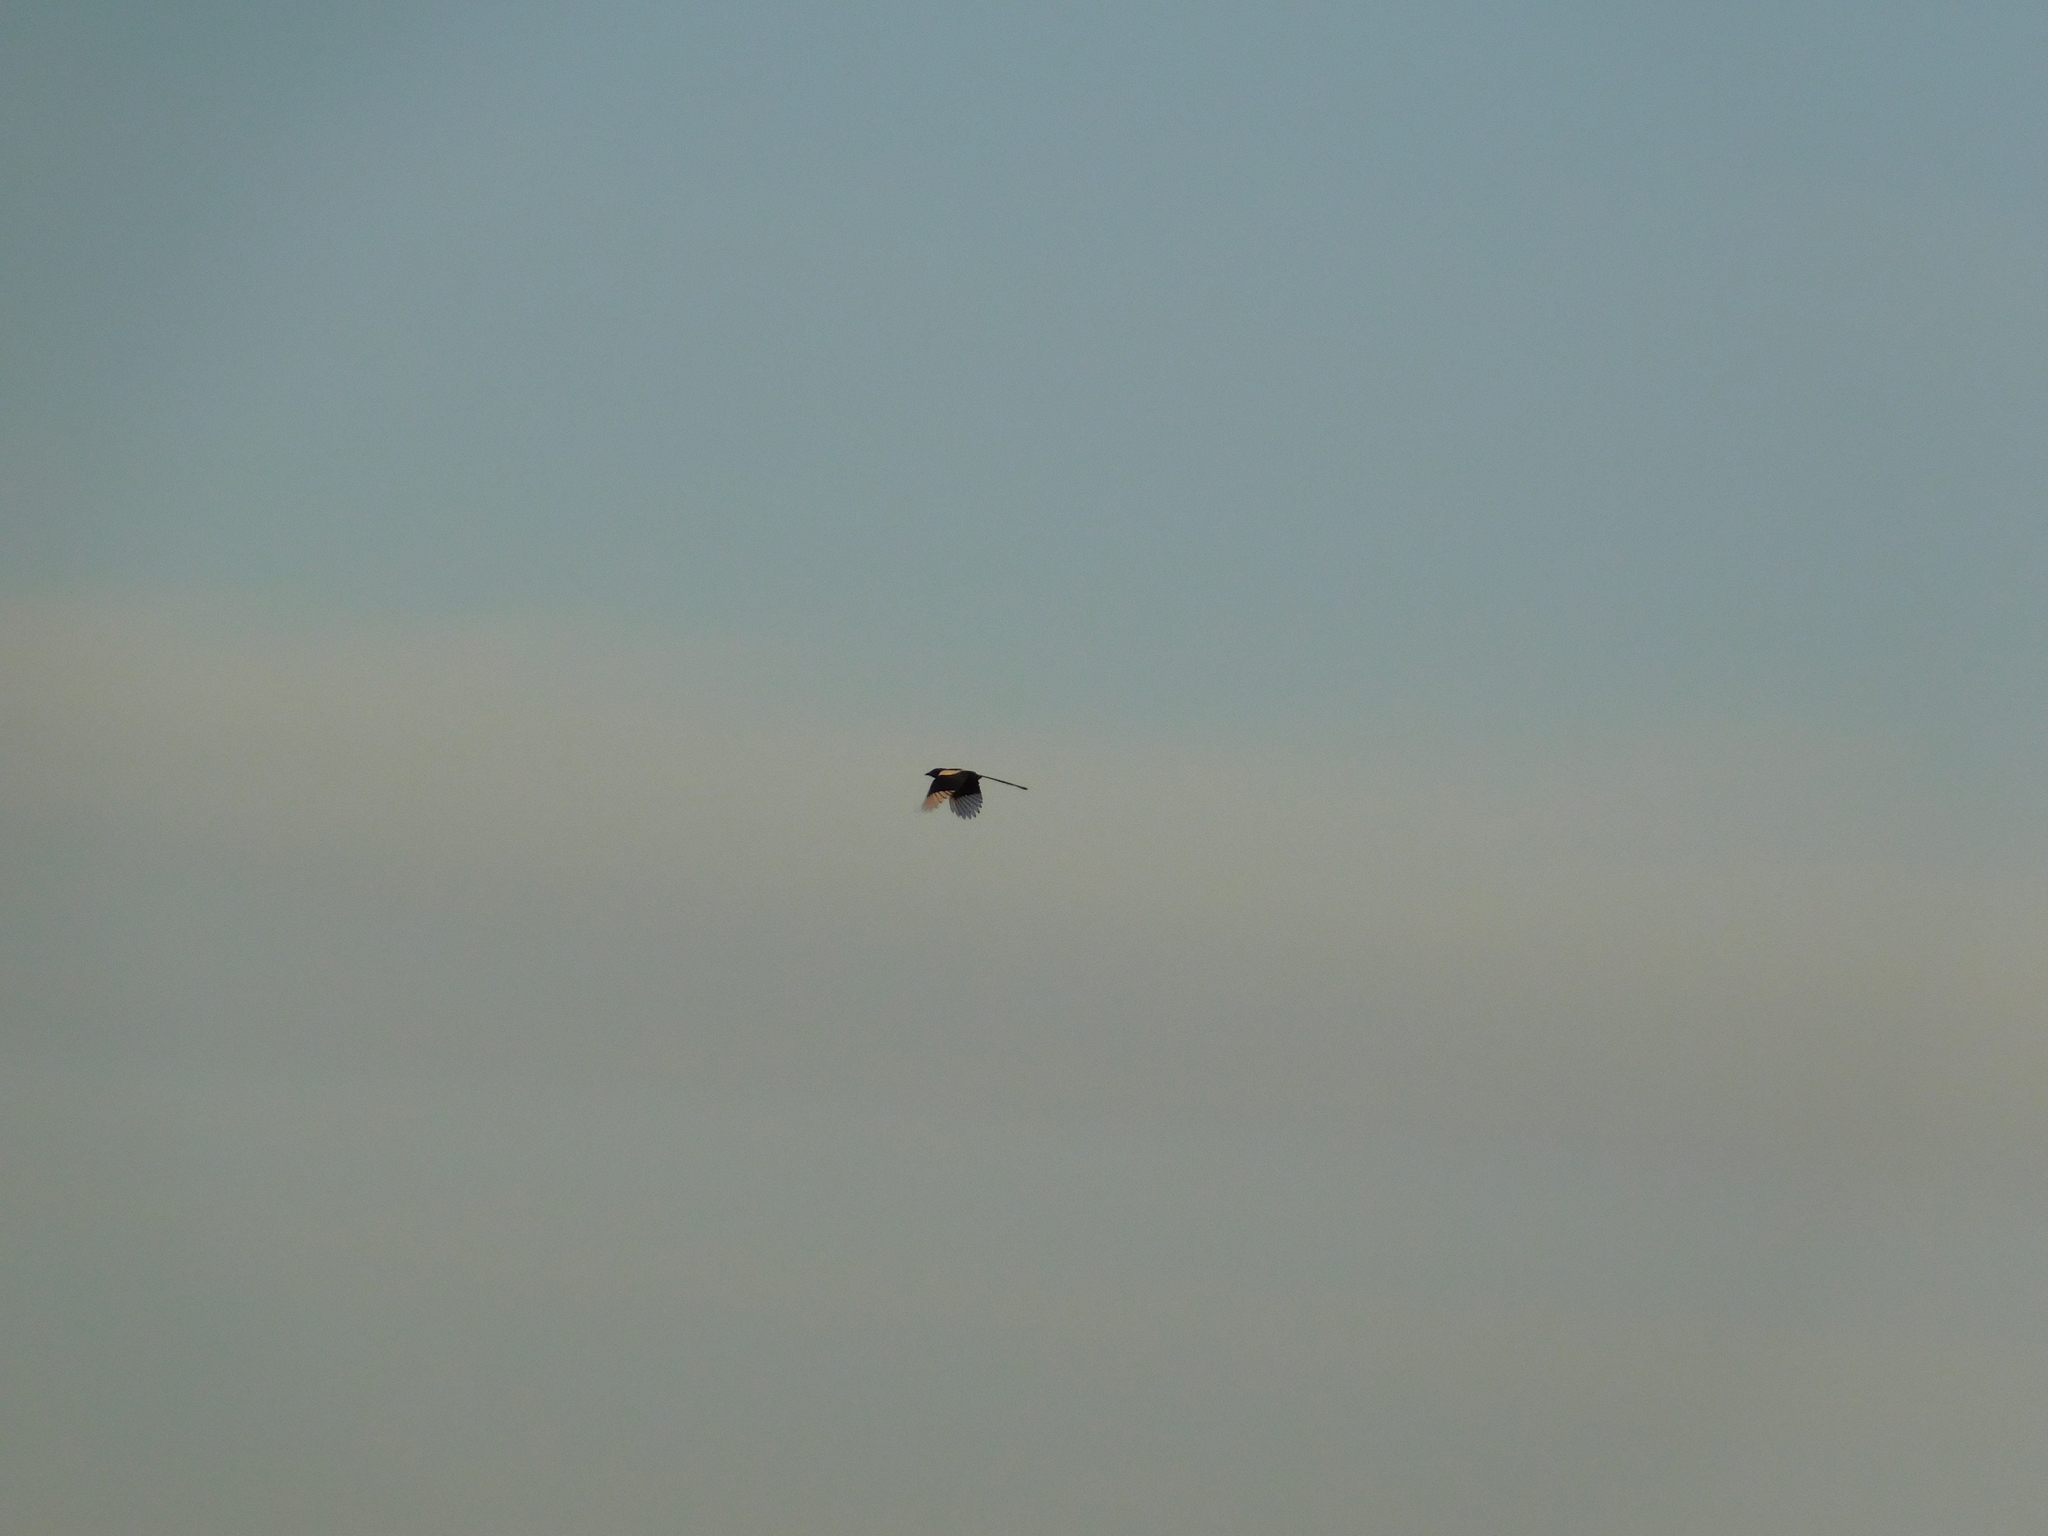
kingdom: Animalia
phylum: Chordata
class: Aves
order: Passeriformes
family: Corvidae
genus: Pica
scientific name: Pica pica
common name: Eurasian magpie
